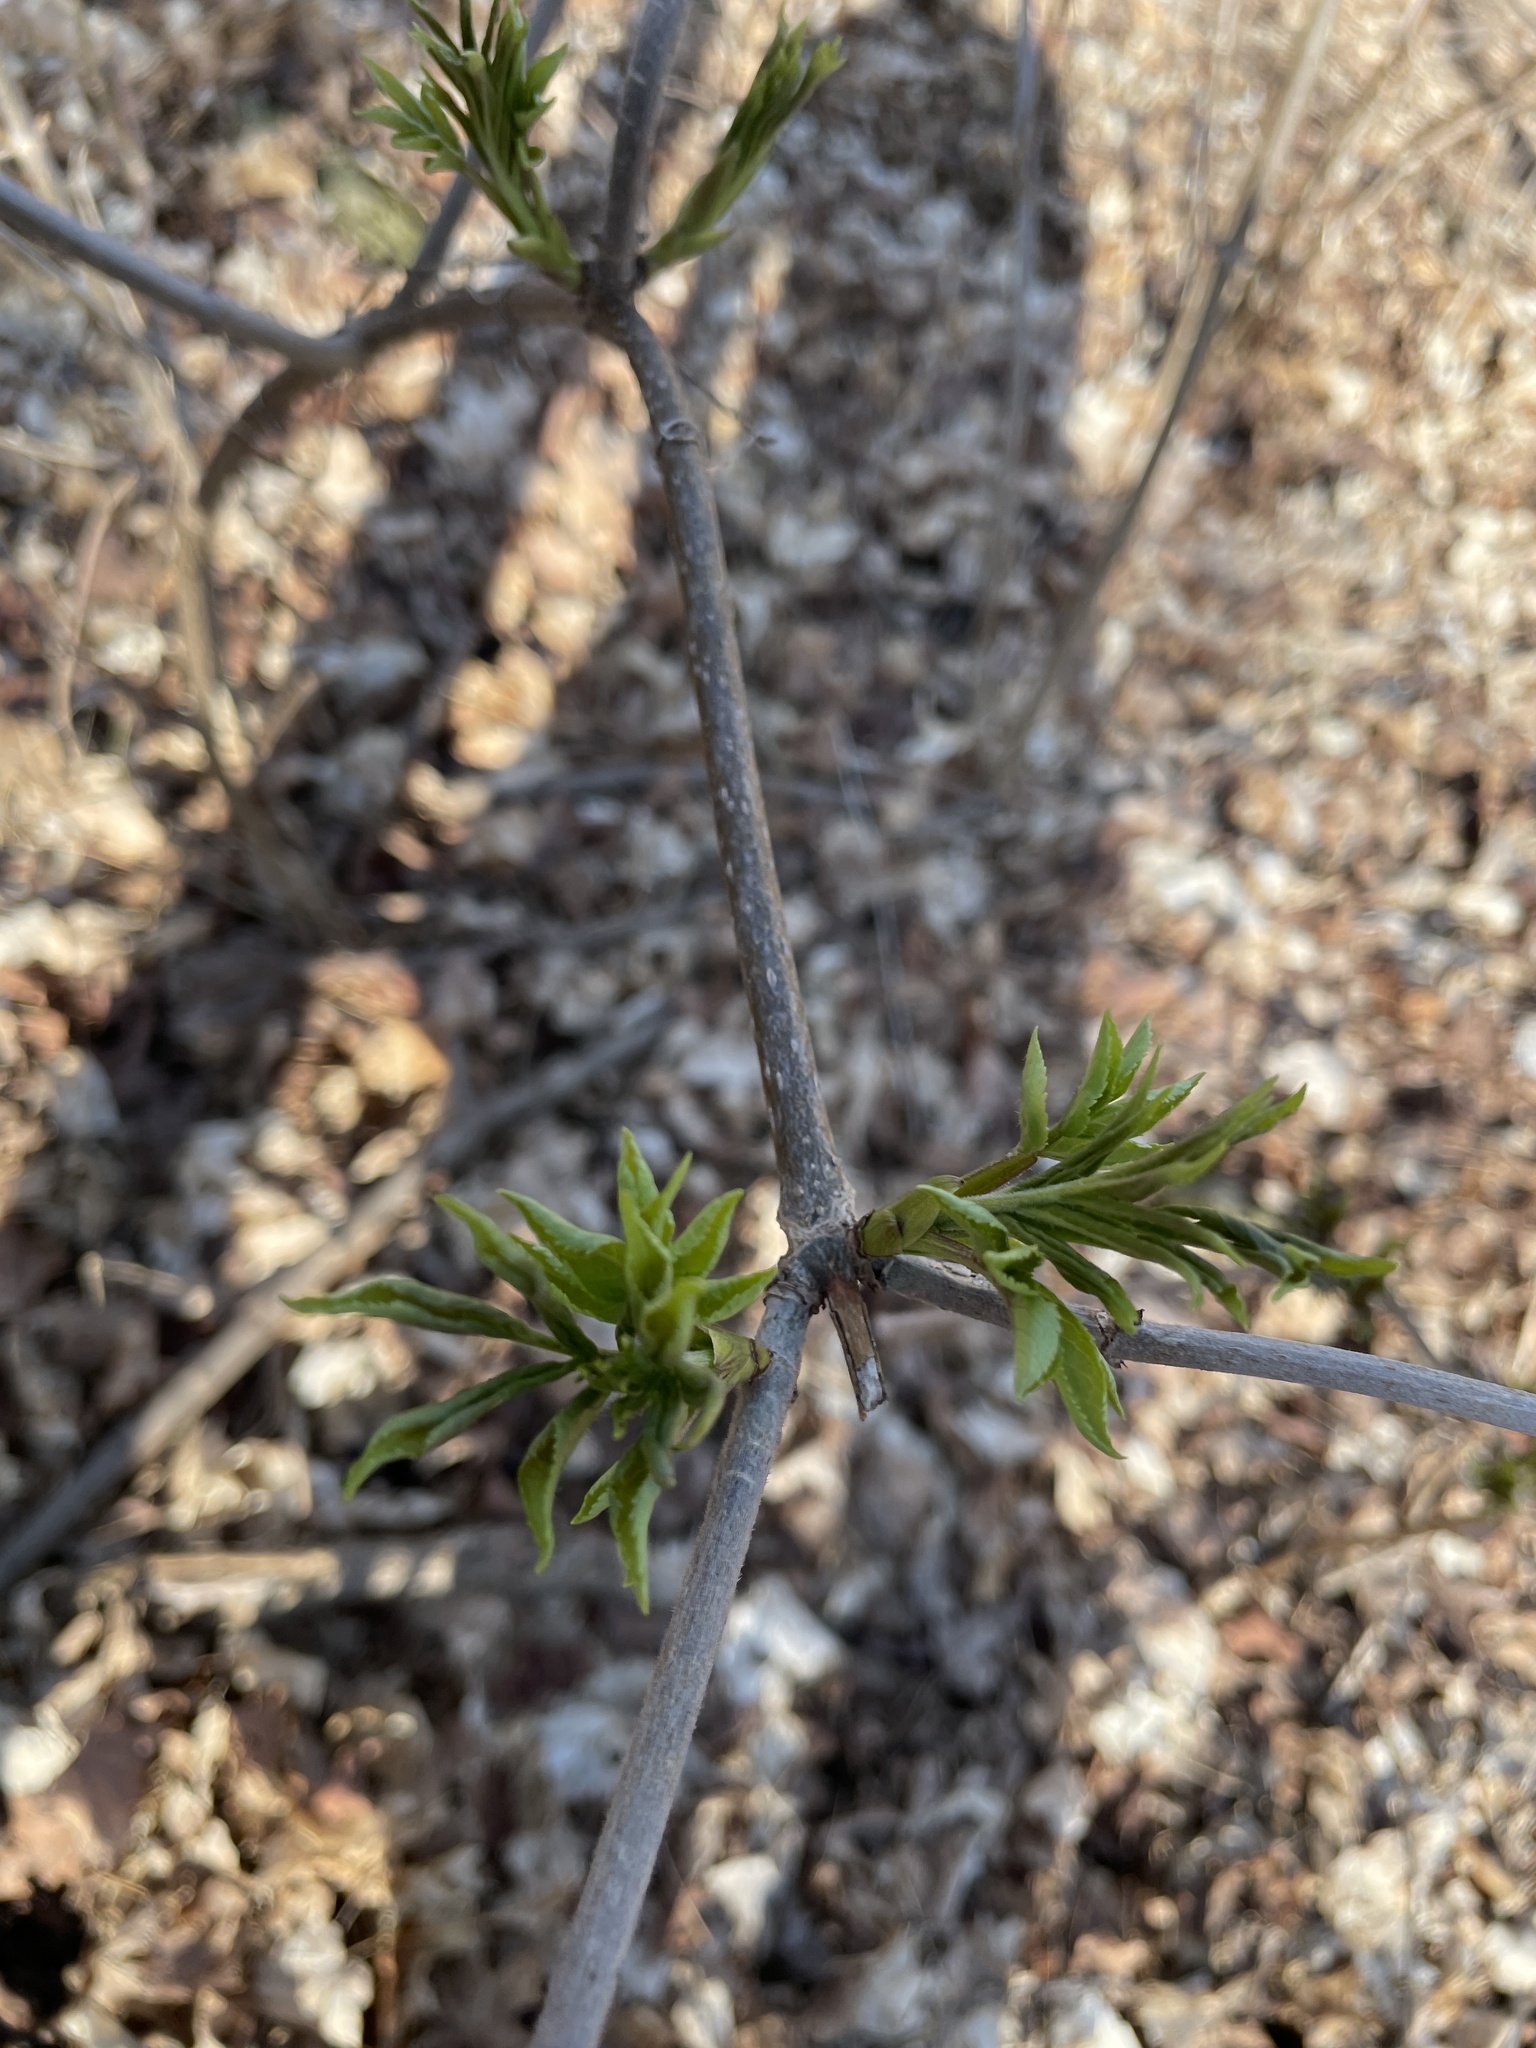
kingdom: Plantae
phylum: Tracheophyta
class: Magnoliopsida
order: Dipsacales
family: Viburnaceae
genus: Sambucus
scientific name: Sambucus racemosa
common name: Red-berried elder
